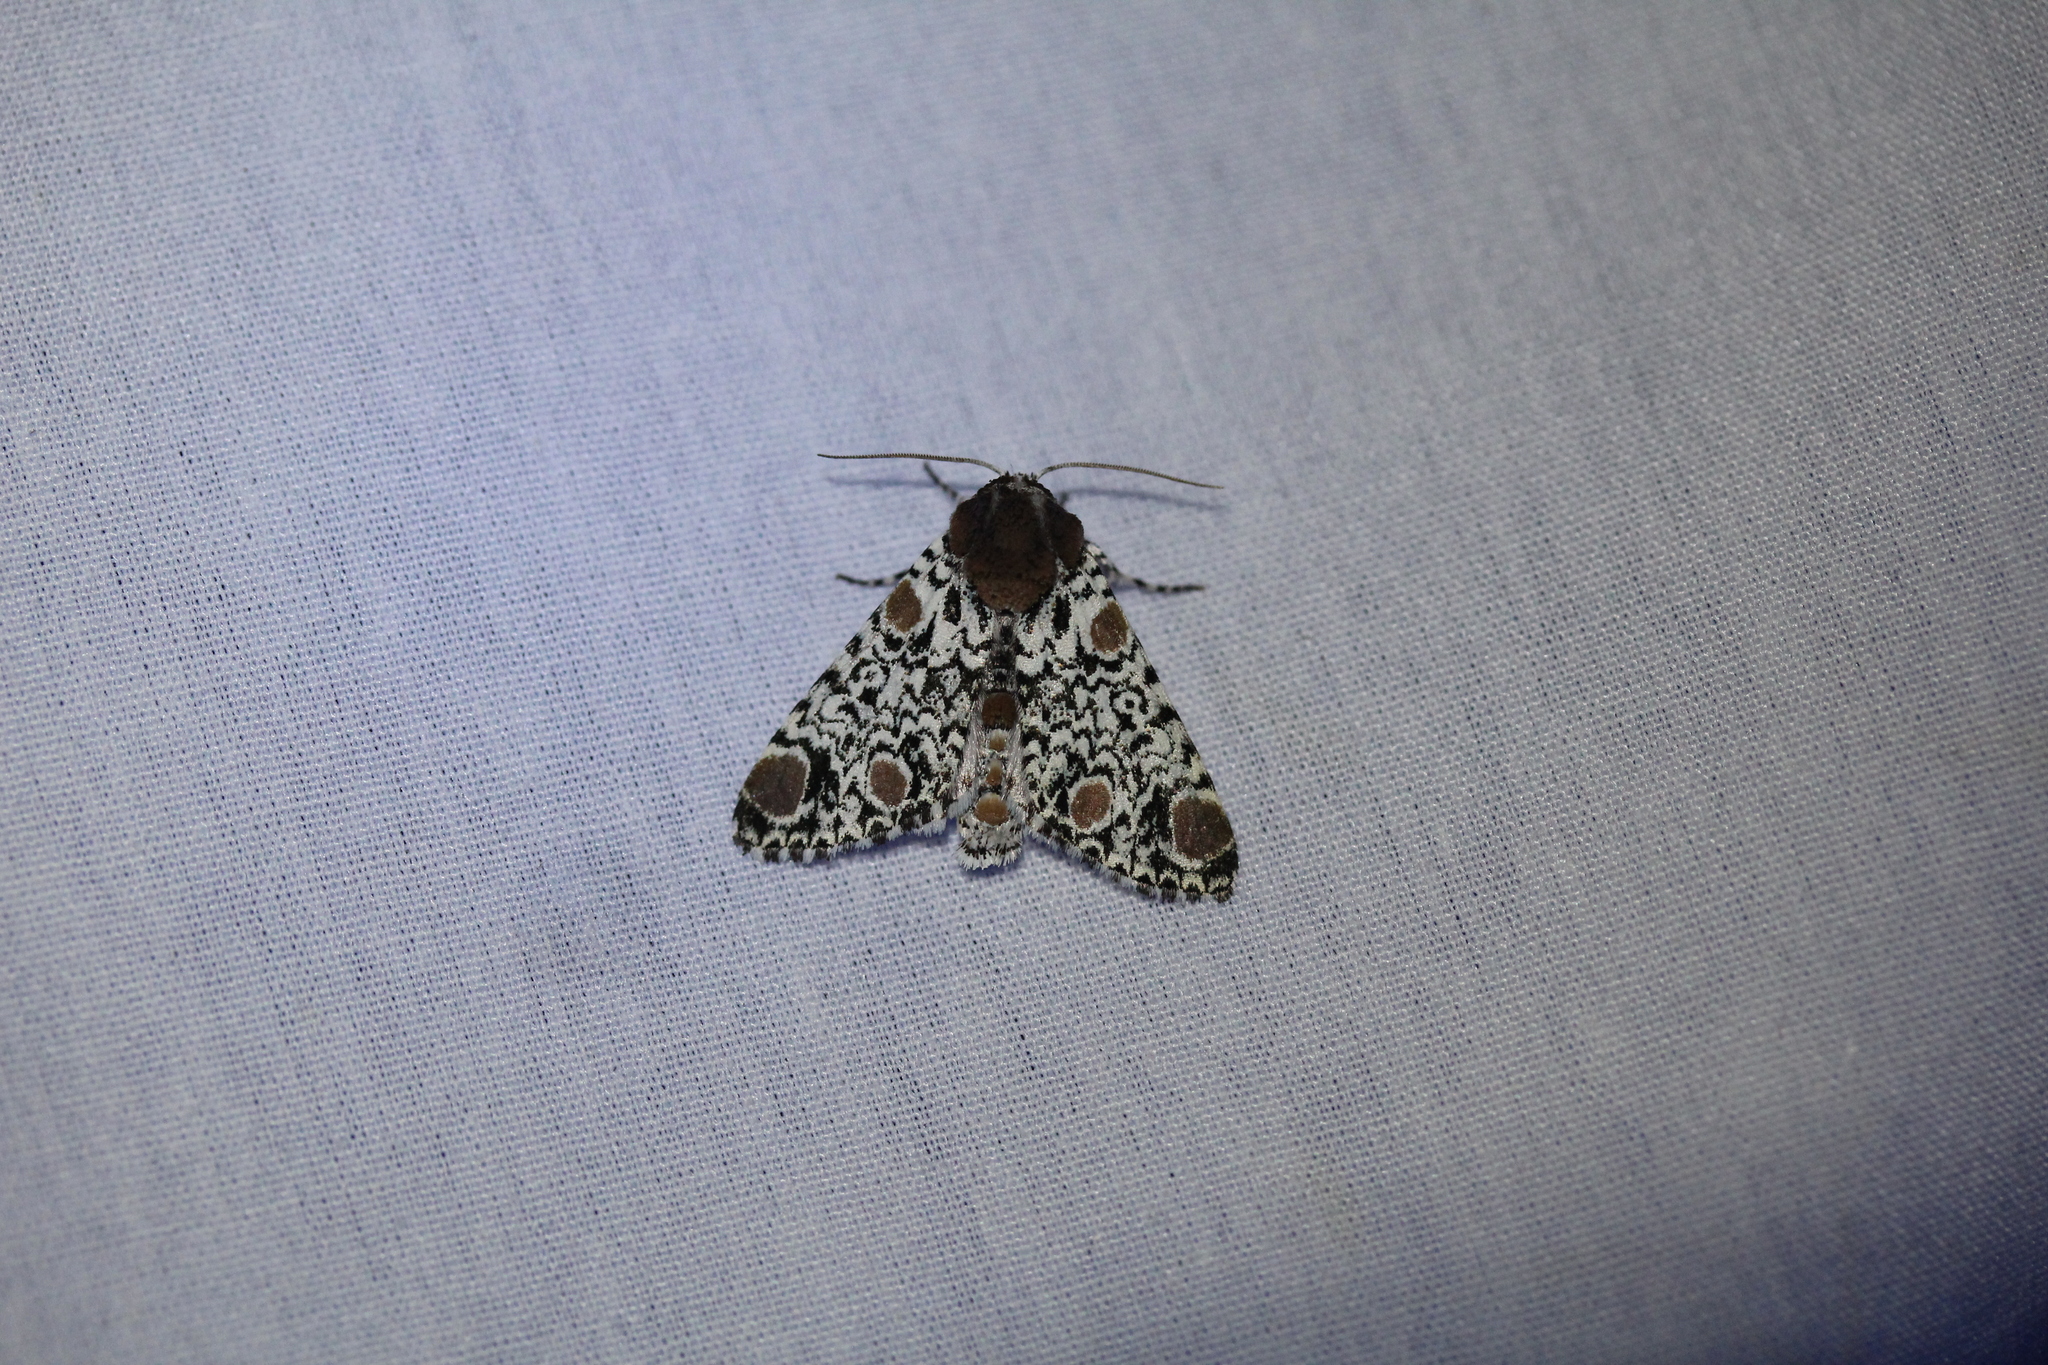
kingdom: Animalia
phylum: Arthropoda
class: Insecta
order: Lepidoptera
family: Noctuidae
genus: Harrisimemna
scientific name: Harrisimemna trisignata
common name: Harris threespot
